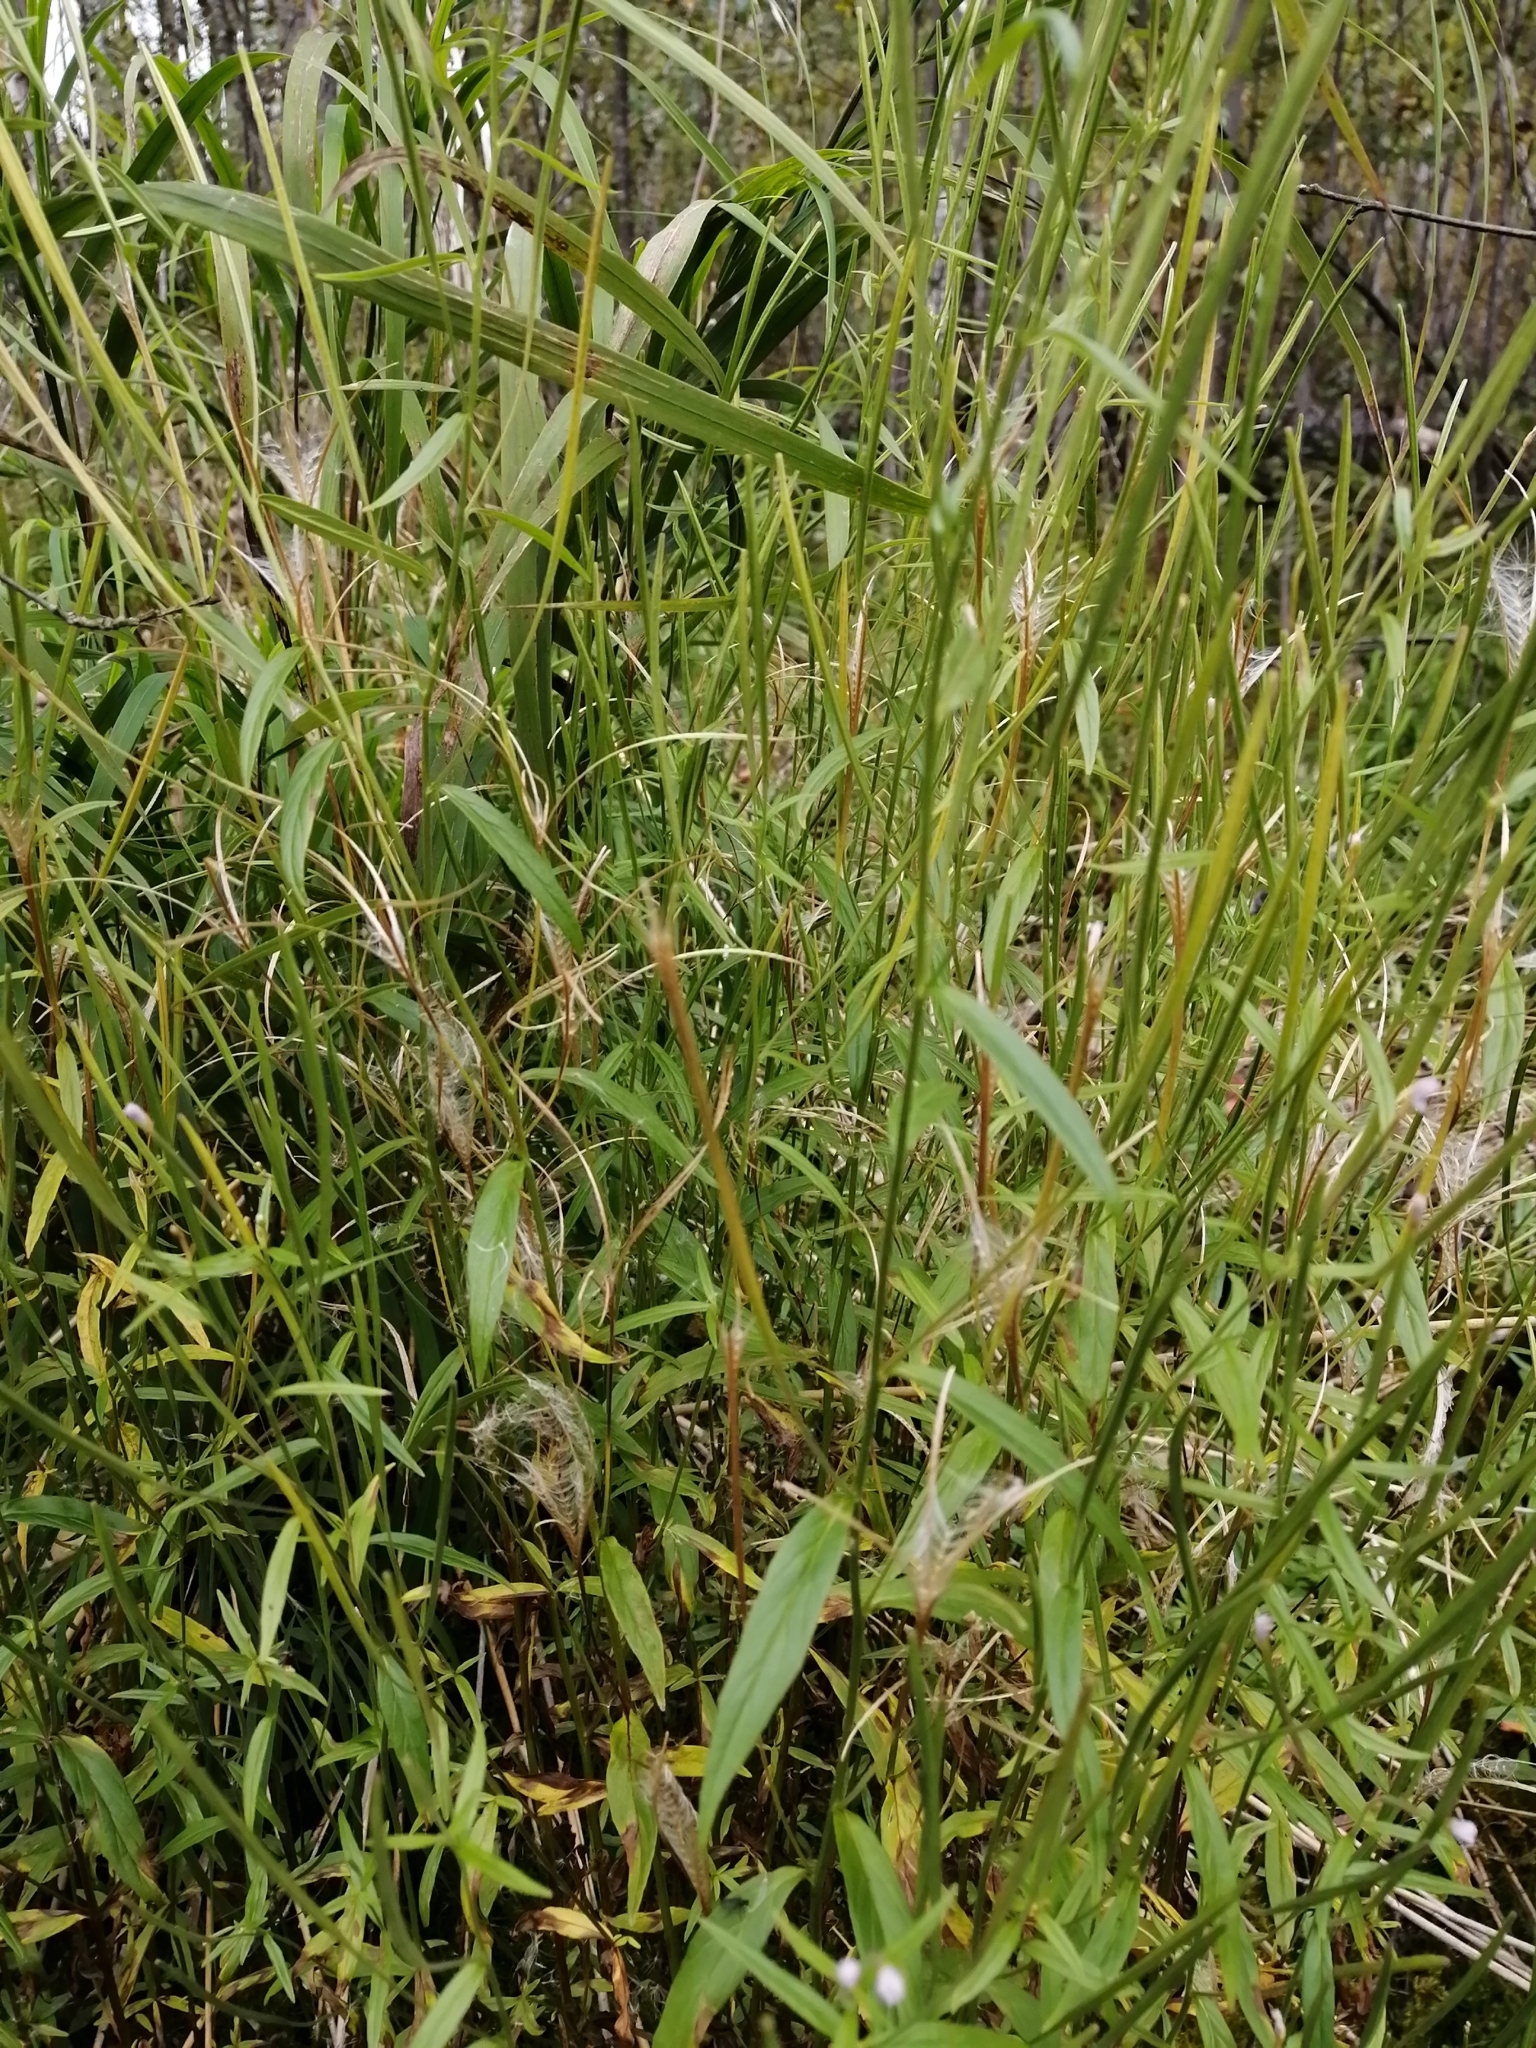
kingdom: Plantae
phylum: Tracheophyta
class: Magnoliopsida
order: Myrtales
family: Onagraceae
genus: Epilobium
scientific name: Epilobium palustre
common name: Marsh willowherb
